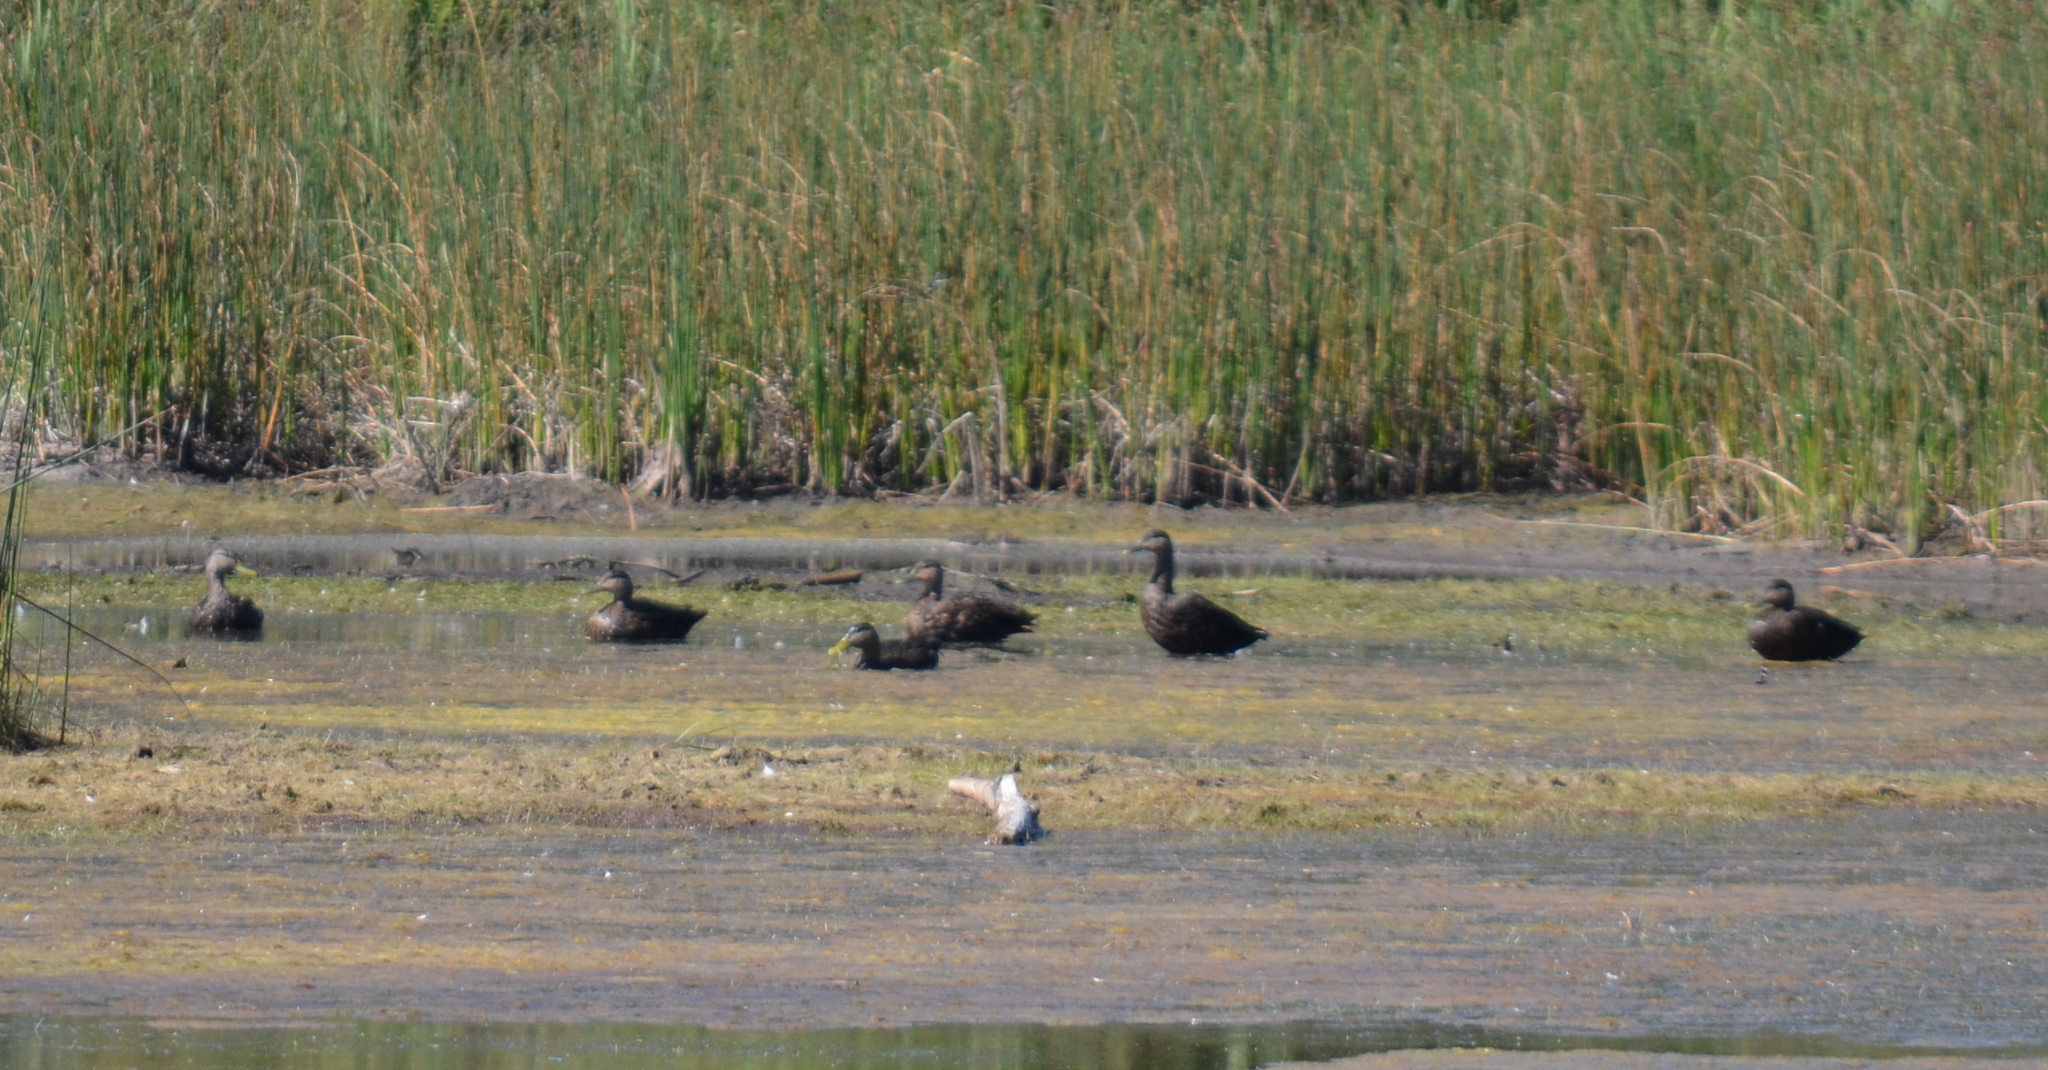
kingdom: Animalia
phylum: Chordata
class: Aves
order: Anseriformes
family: Anatidae
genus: Anas
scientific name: Anas rubripes
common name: American black duck
